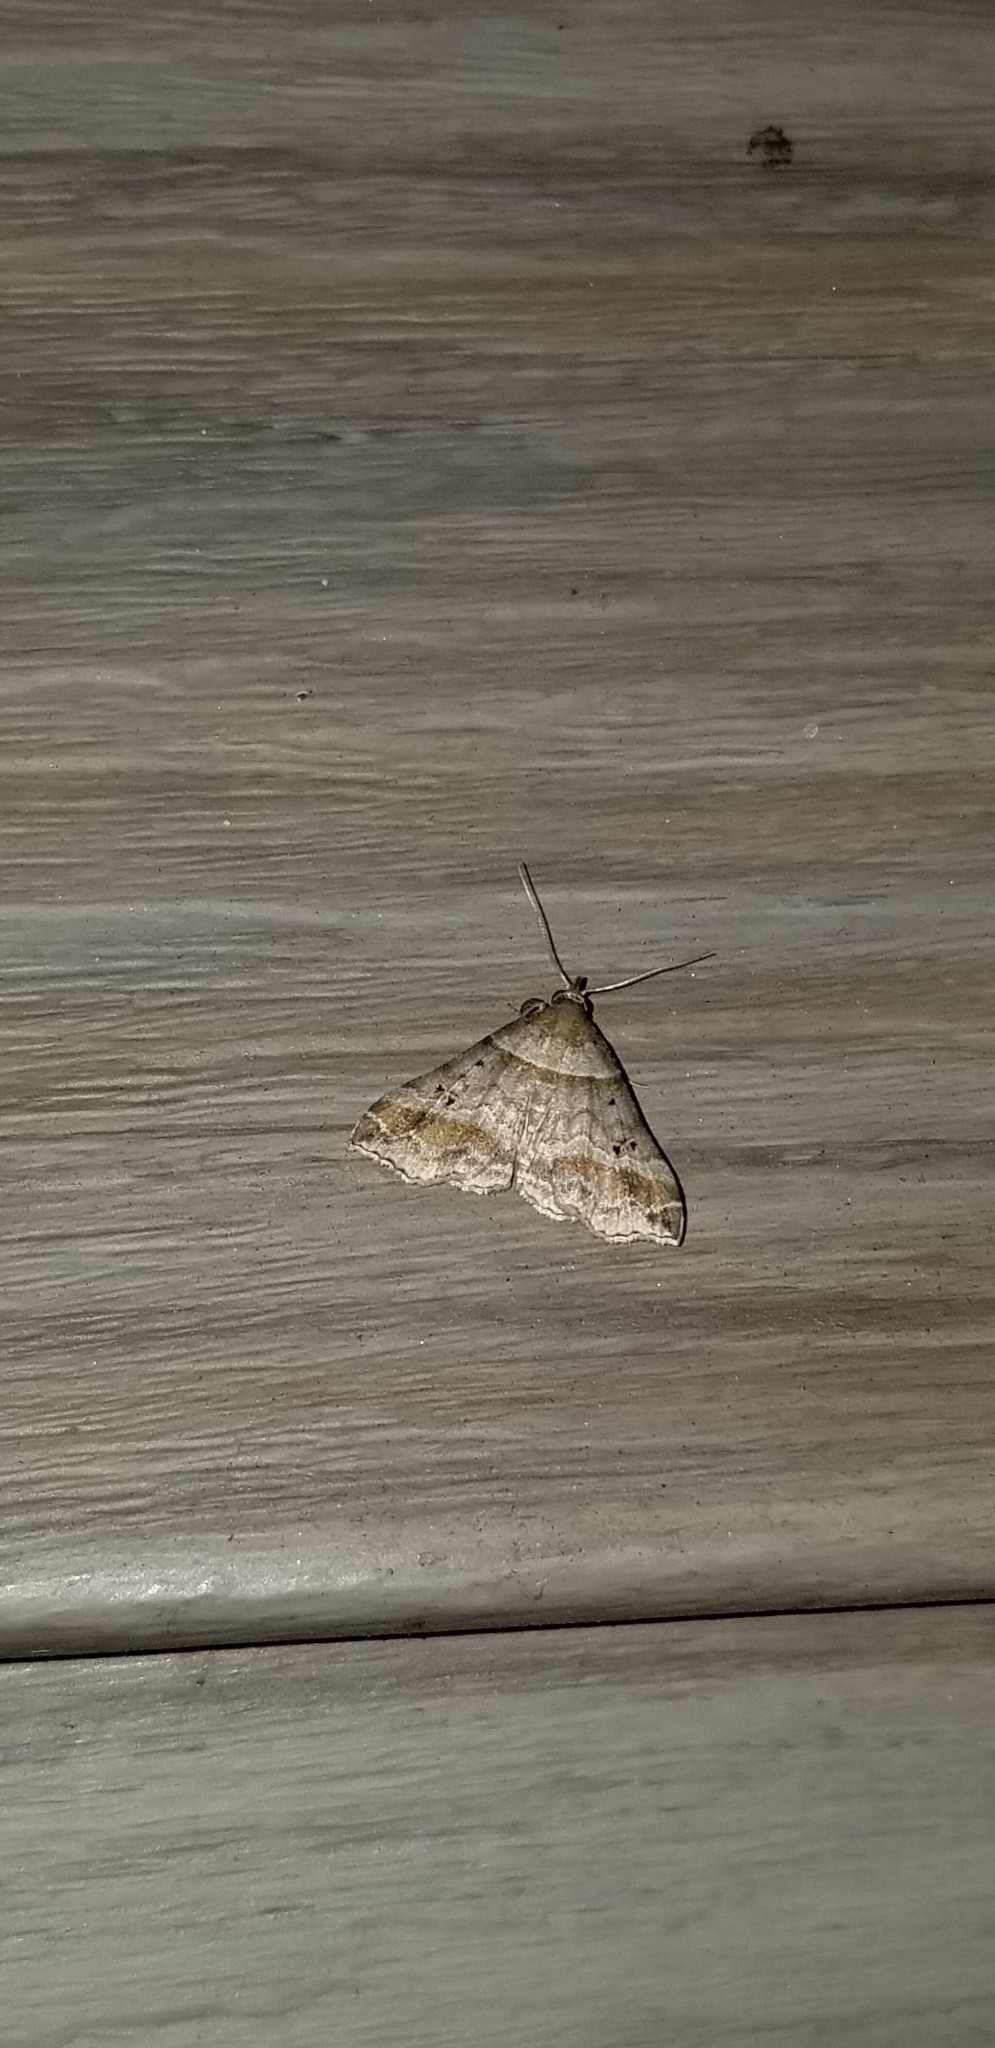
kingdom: Animalia
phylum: Arthropoda
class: Insecta
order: Lepidoptera
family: Erebidae
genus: Phaeolita
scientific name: Phaeolita pyramusalis
